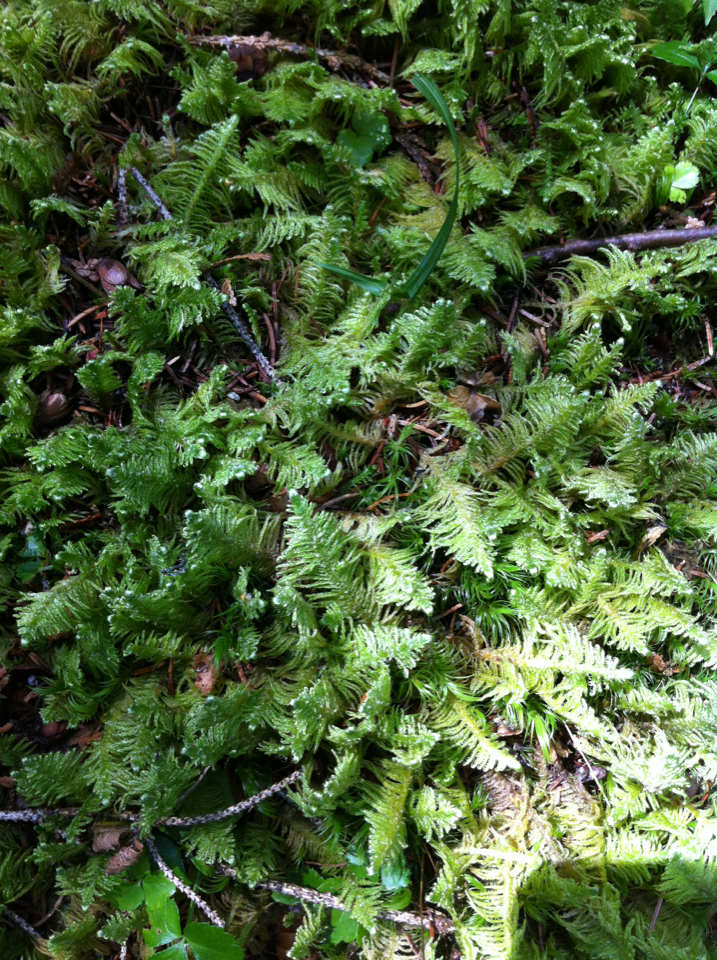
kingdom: Plantae
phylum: Bryophyta
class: Bryopsida
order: Hypnales
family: Pylaisiaceae
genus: Ptilium
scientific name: Ptilium crista-castrensis
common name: Knight's plume moss
